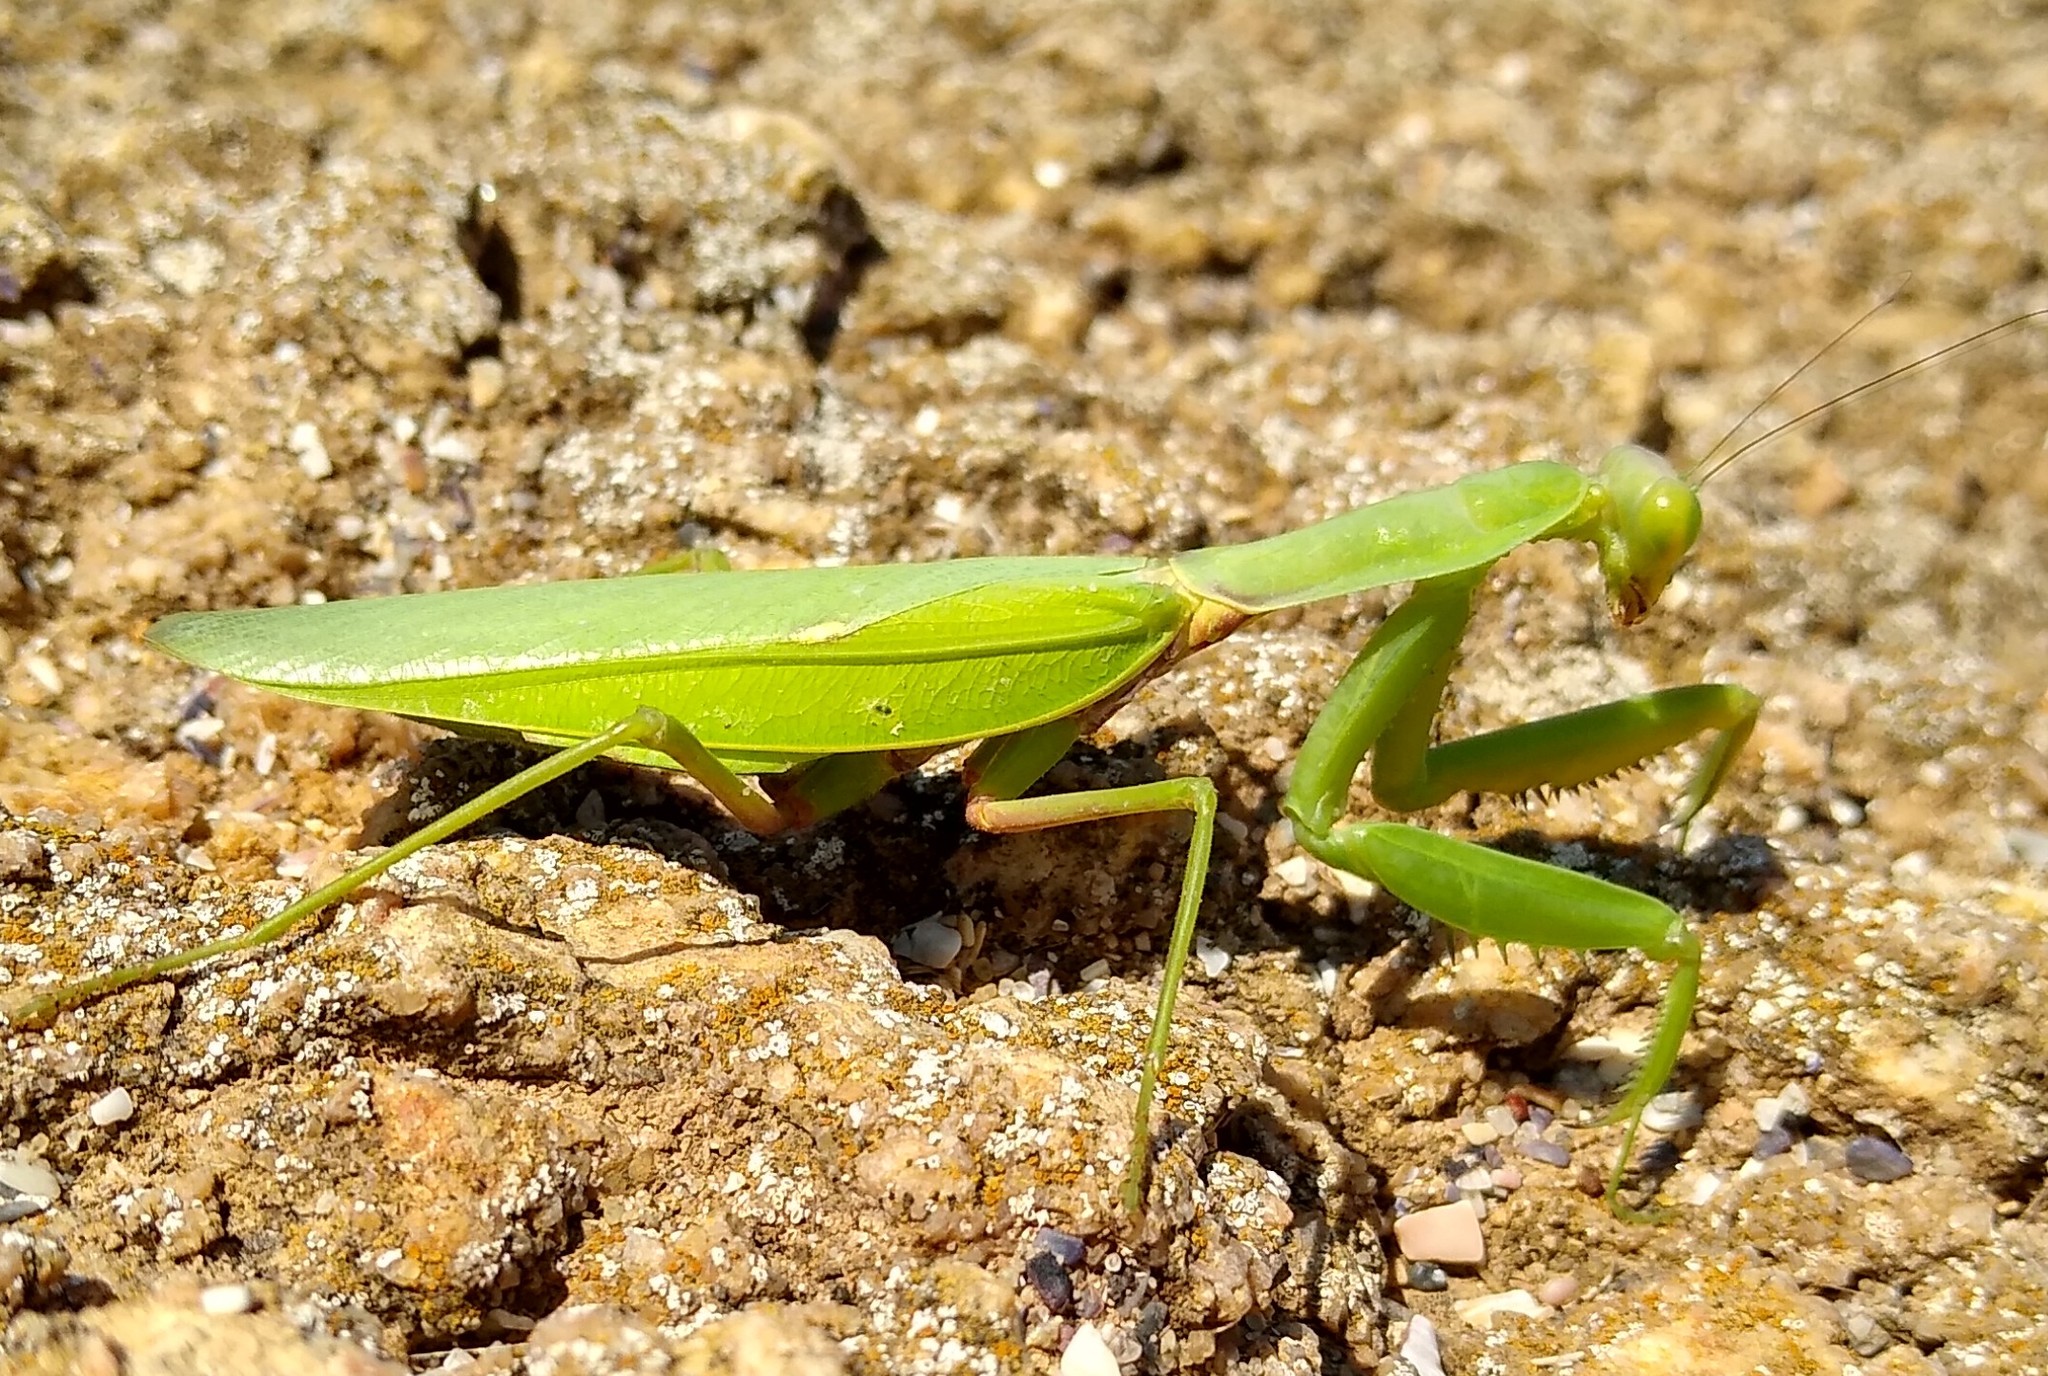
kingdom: Animalia
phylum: Arthropoda
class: Insecta
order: Mantodea
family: Mantidae
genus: Hierodula
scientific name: Hierodula transcaucasica
